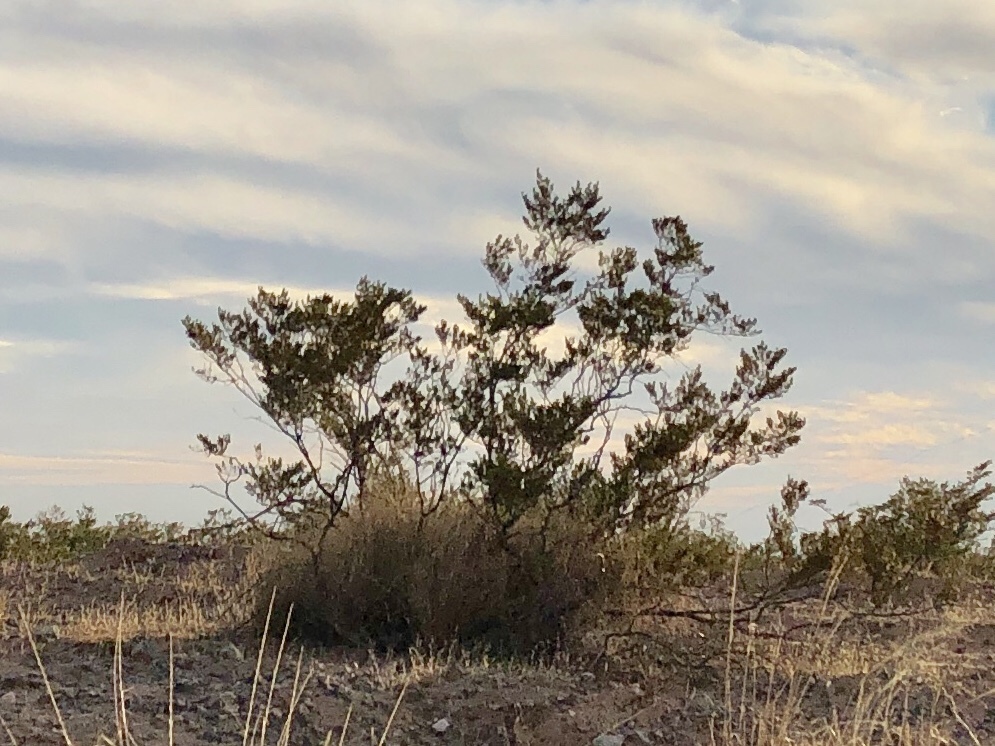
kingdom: Plantae
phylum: Tracheophyta
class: Magnoliopsida
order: Zygophyllales
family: Zygophyllaceae
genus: Larrea
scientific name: Larrea tridentata
